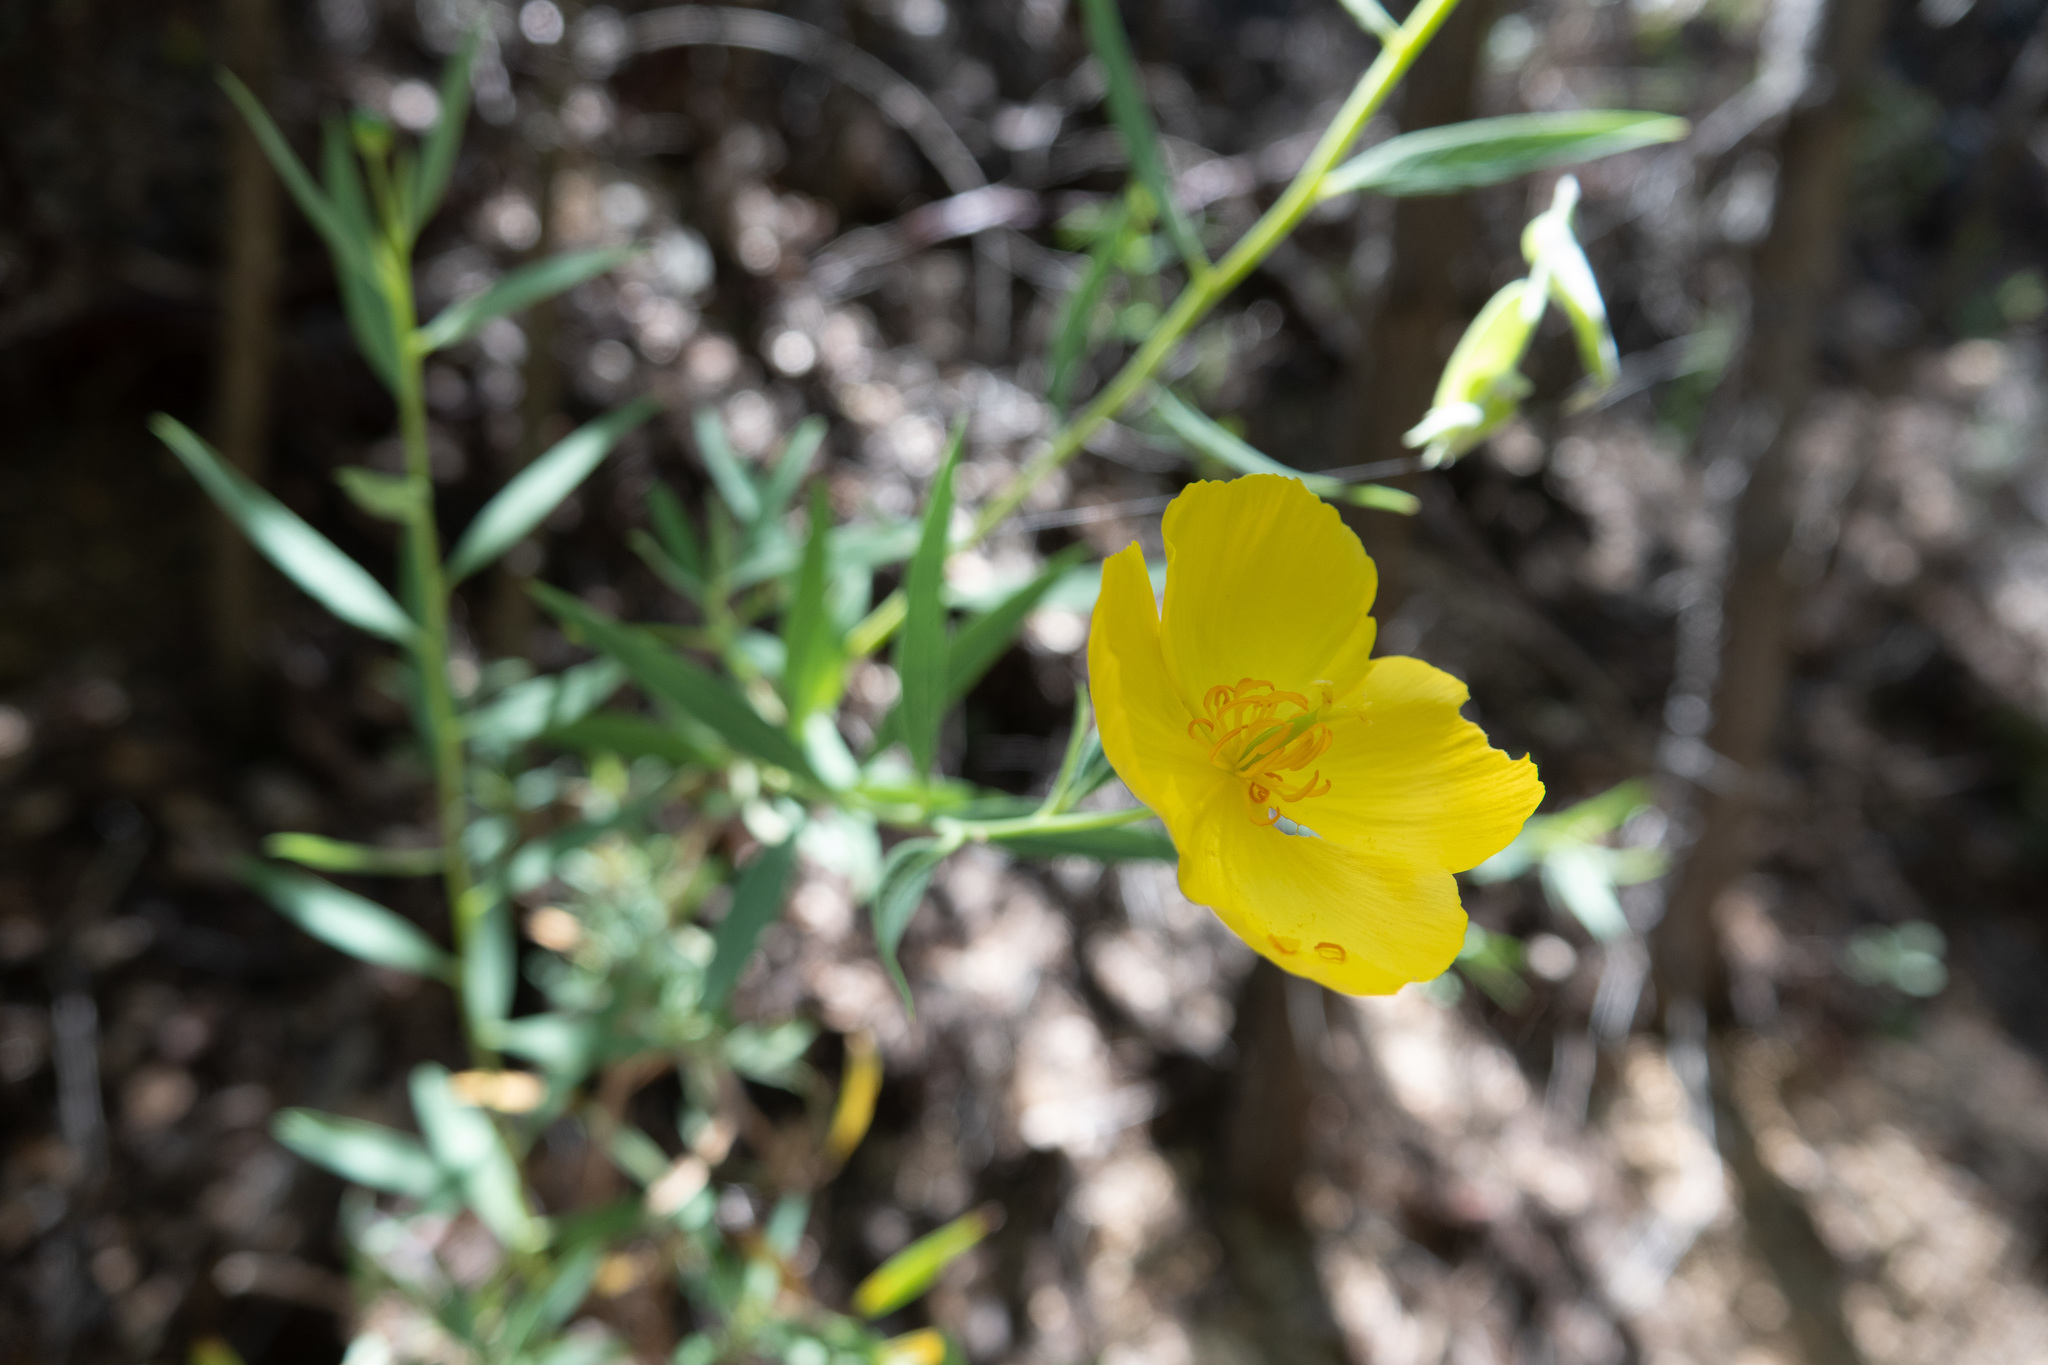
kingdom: Plantae
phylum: Tracheophyta
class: Magnoliopsida
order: Ranunculales
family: Papaveraceae
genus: Dendromecon
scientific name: Dendromecon rigida
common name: Tree poppy
